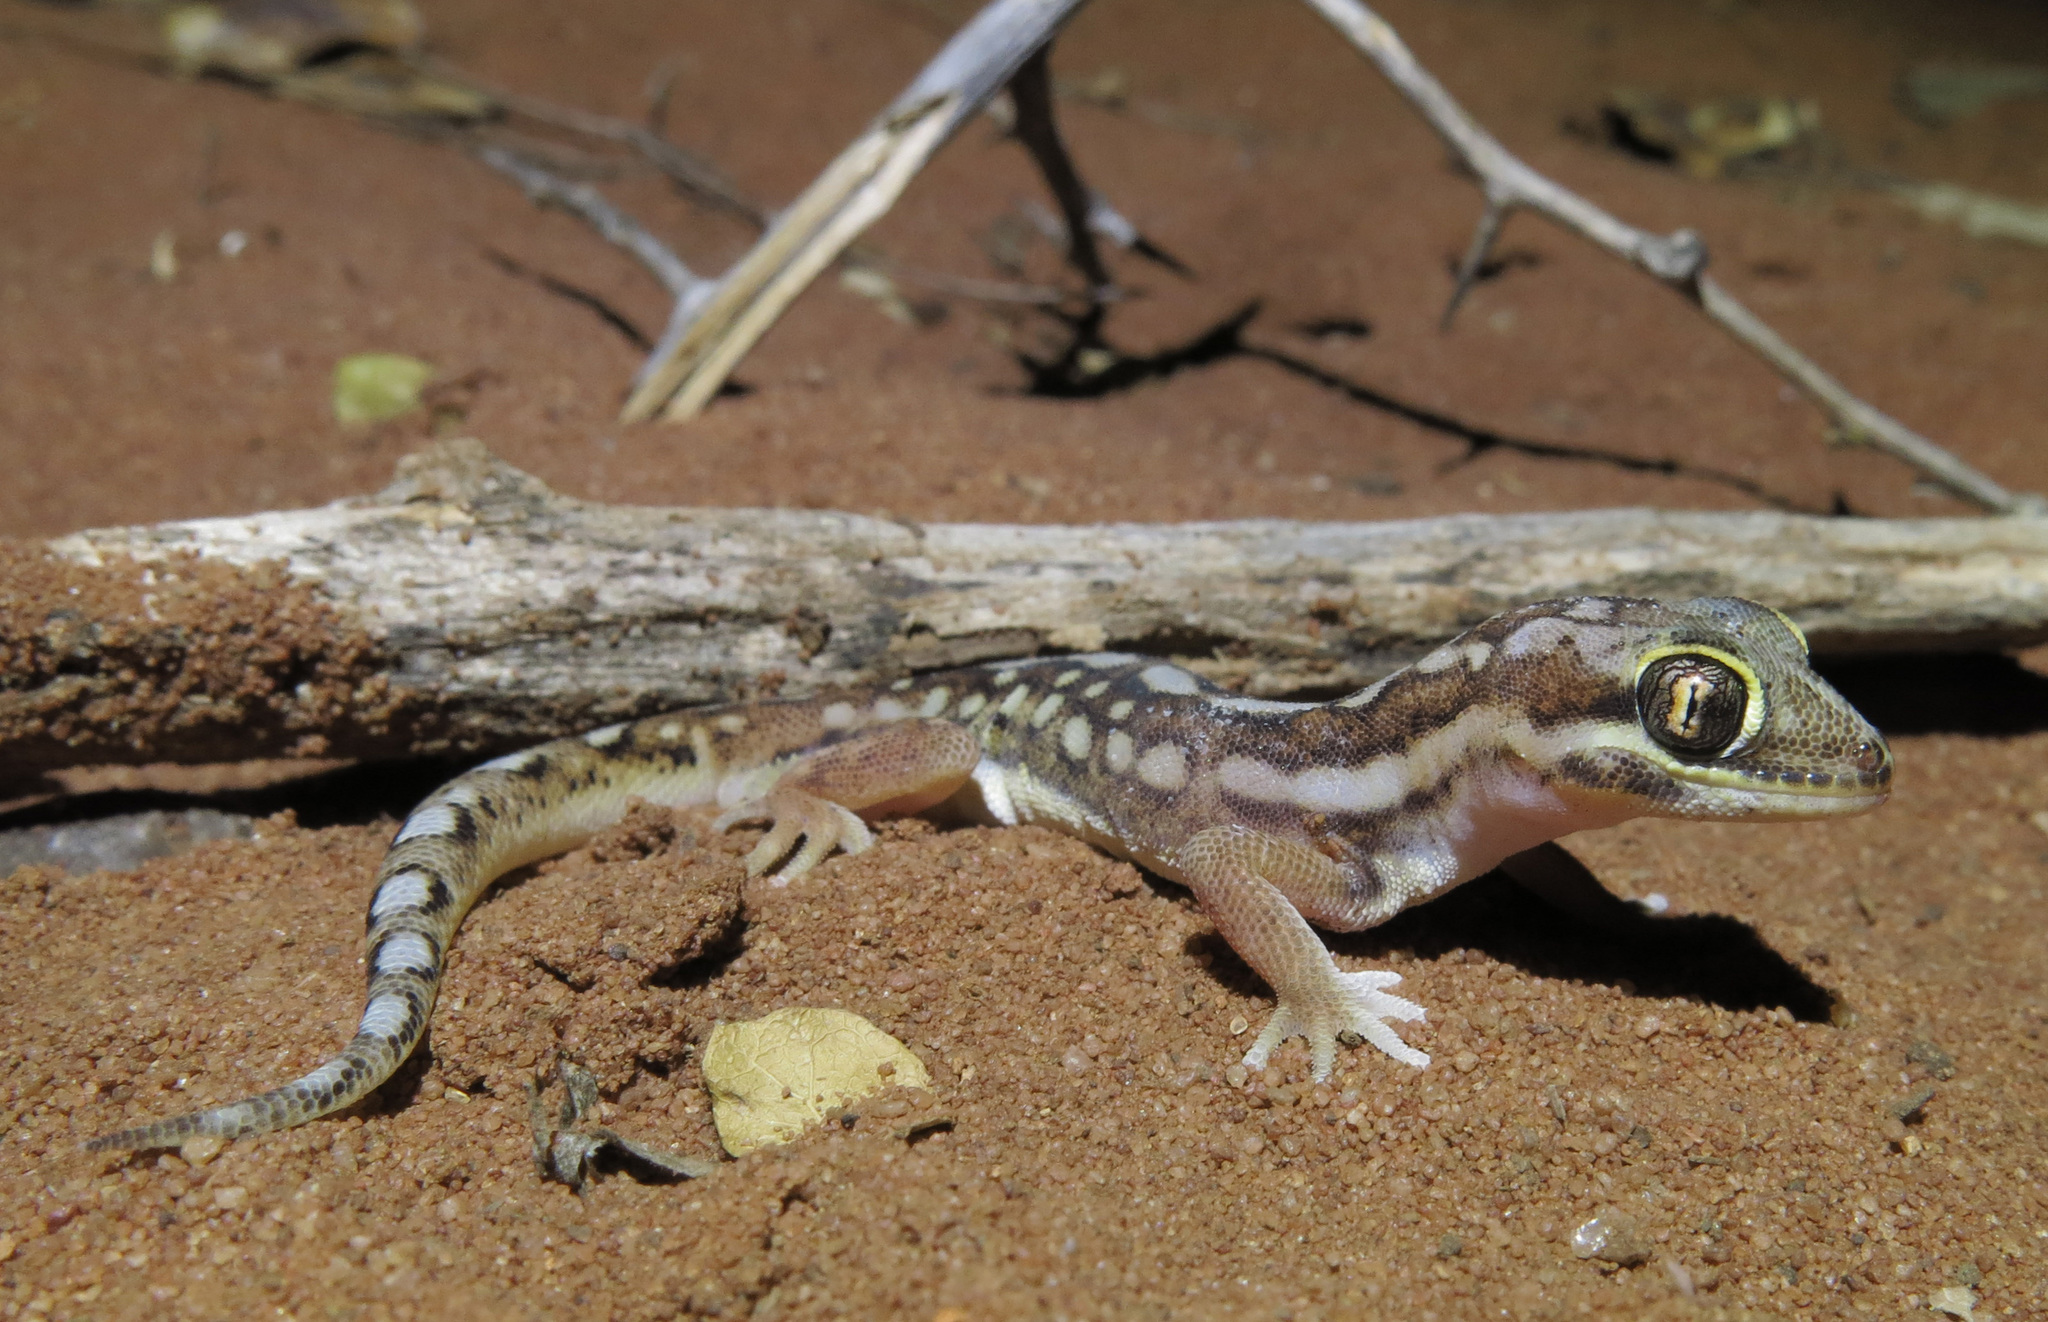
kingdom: Animalia
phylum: Chordata
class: Squamata
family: Gekkonidae
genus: Pachydactylus
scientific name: Pachydactylus wahlbergii
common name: Kalahari ground gecko
